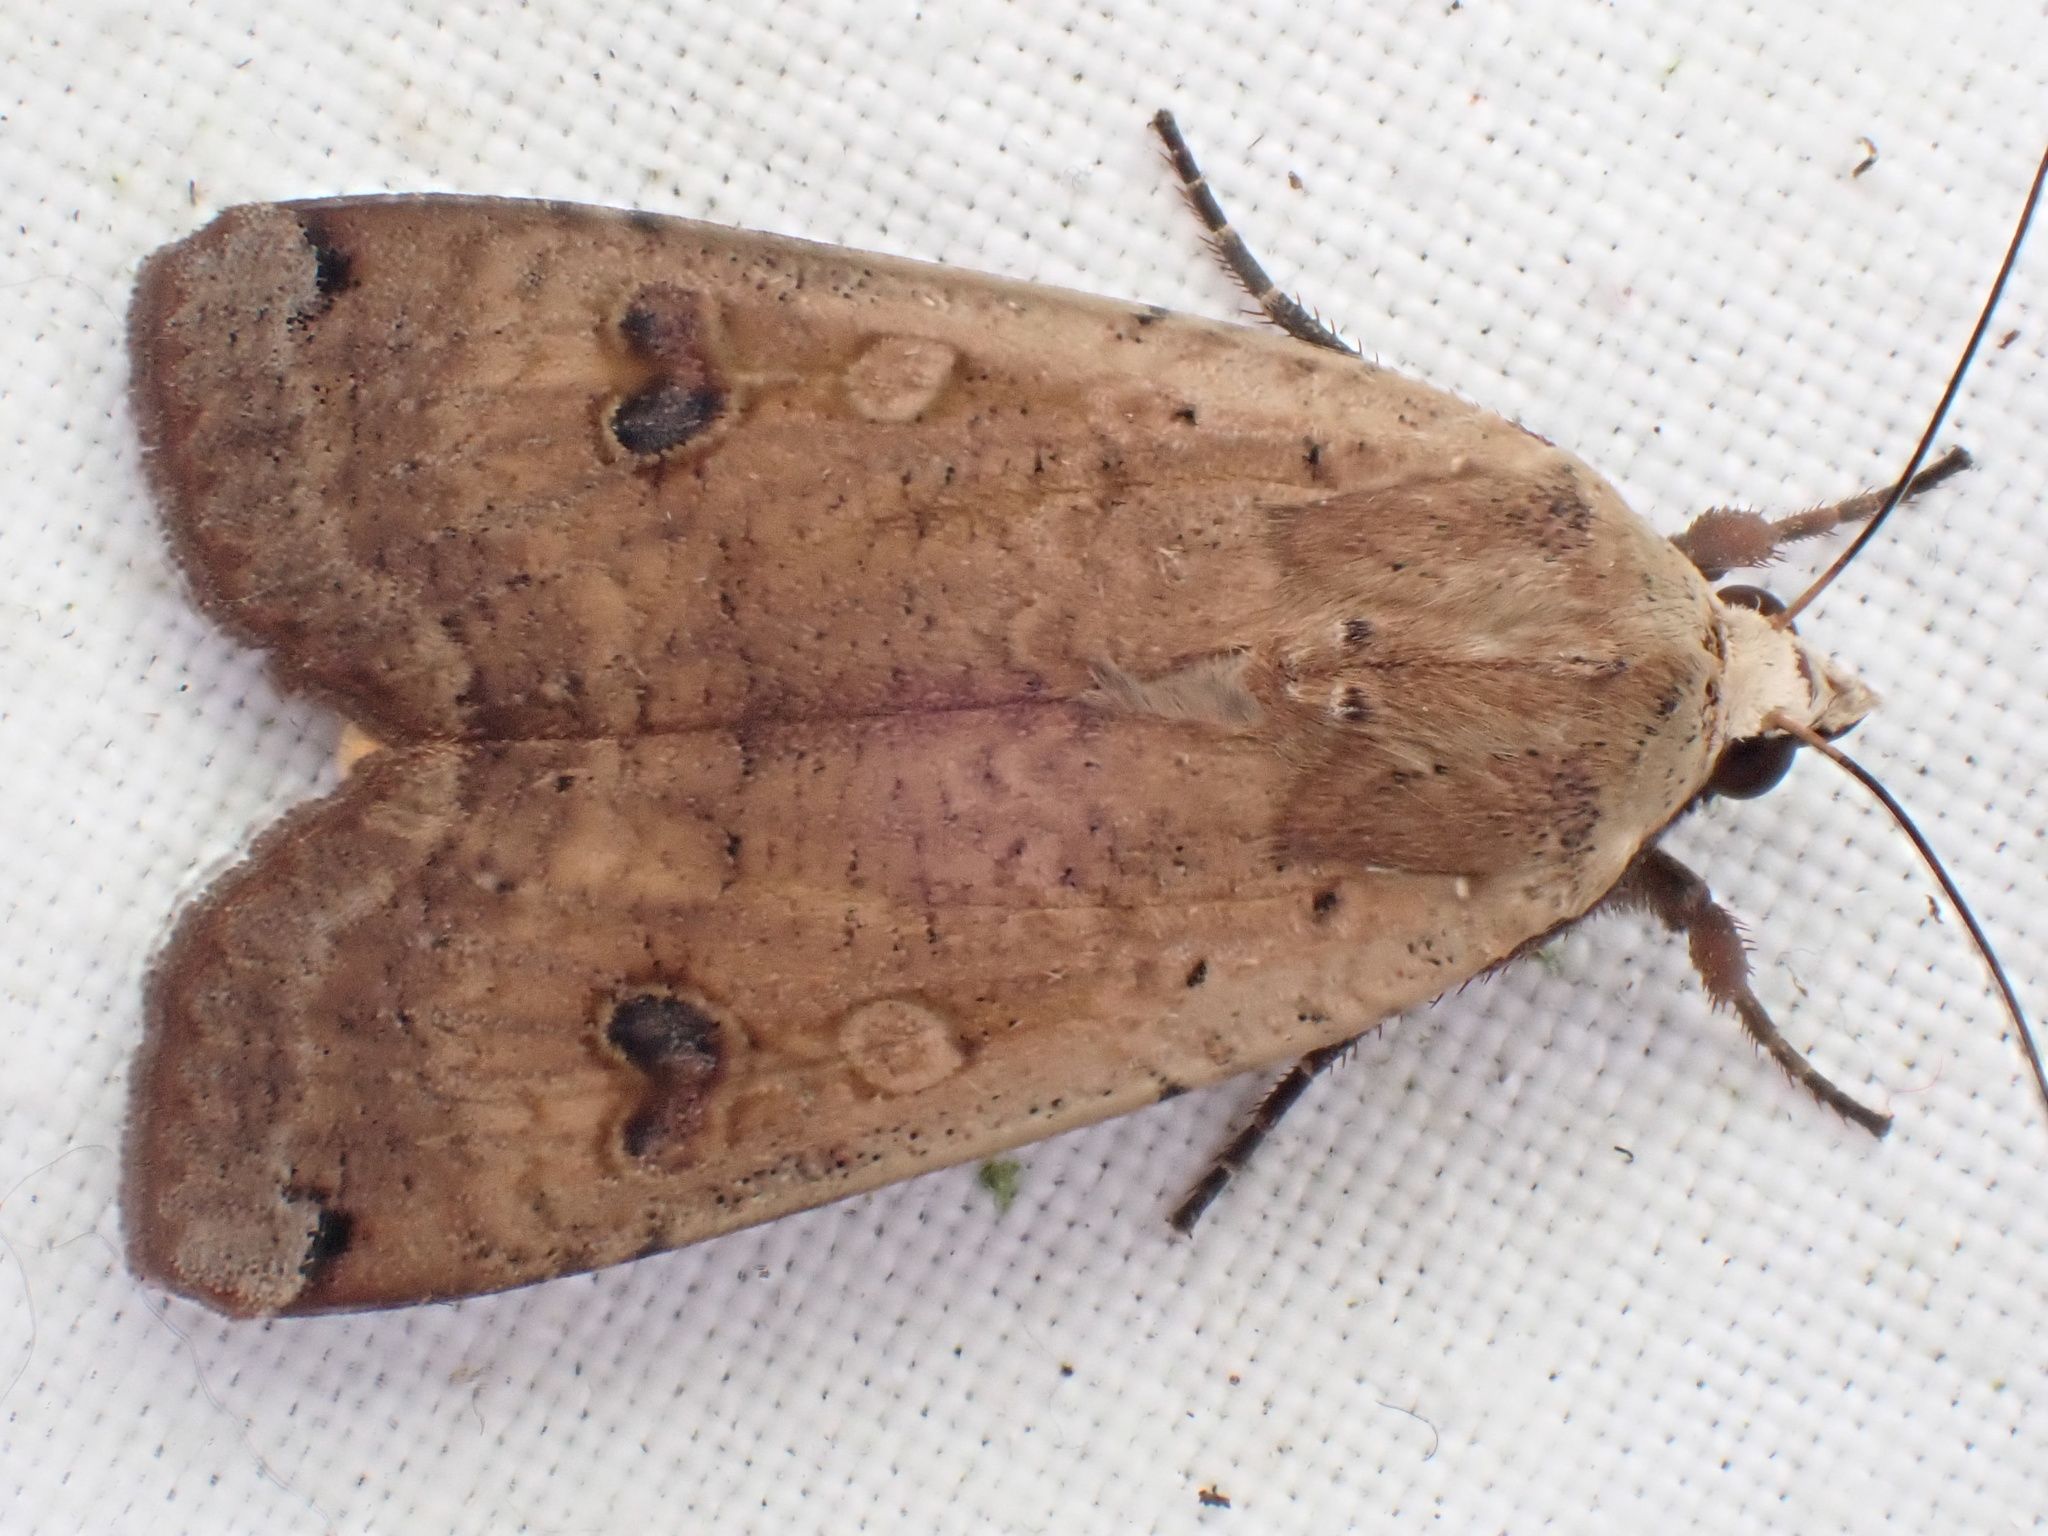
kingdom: Animalia
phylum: Arthropoda
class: Insecta
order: Lepidoptera
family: Noctuidae
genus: Noctua
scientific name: Noctua pronuba
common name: Large yellow underwing
